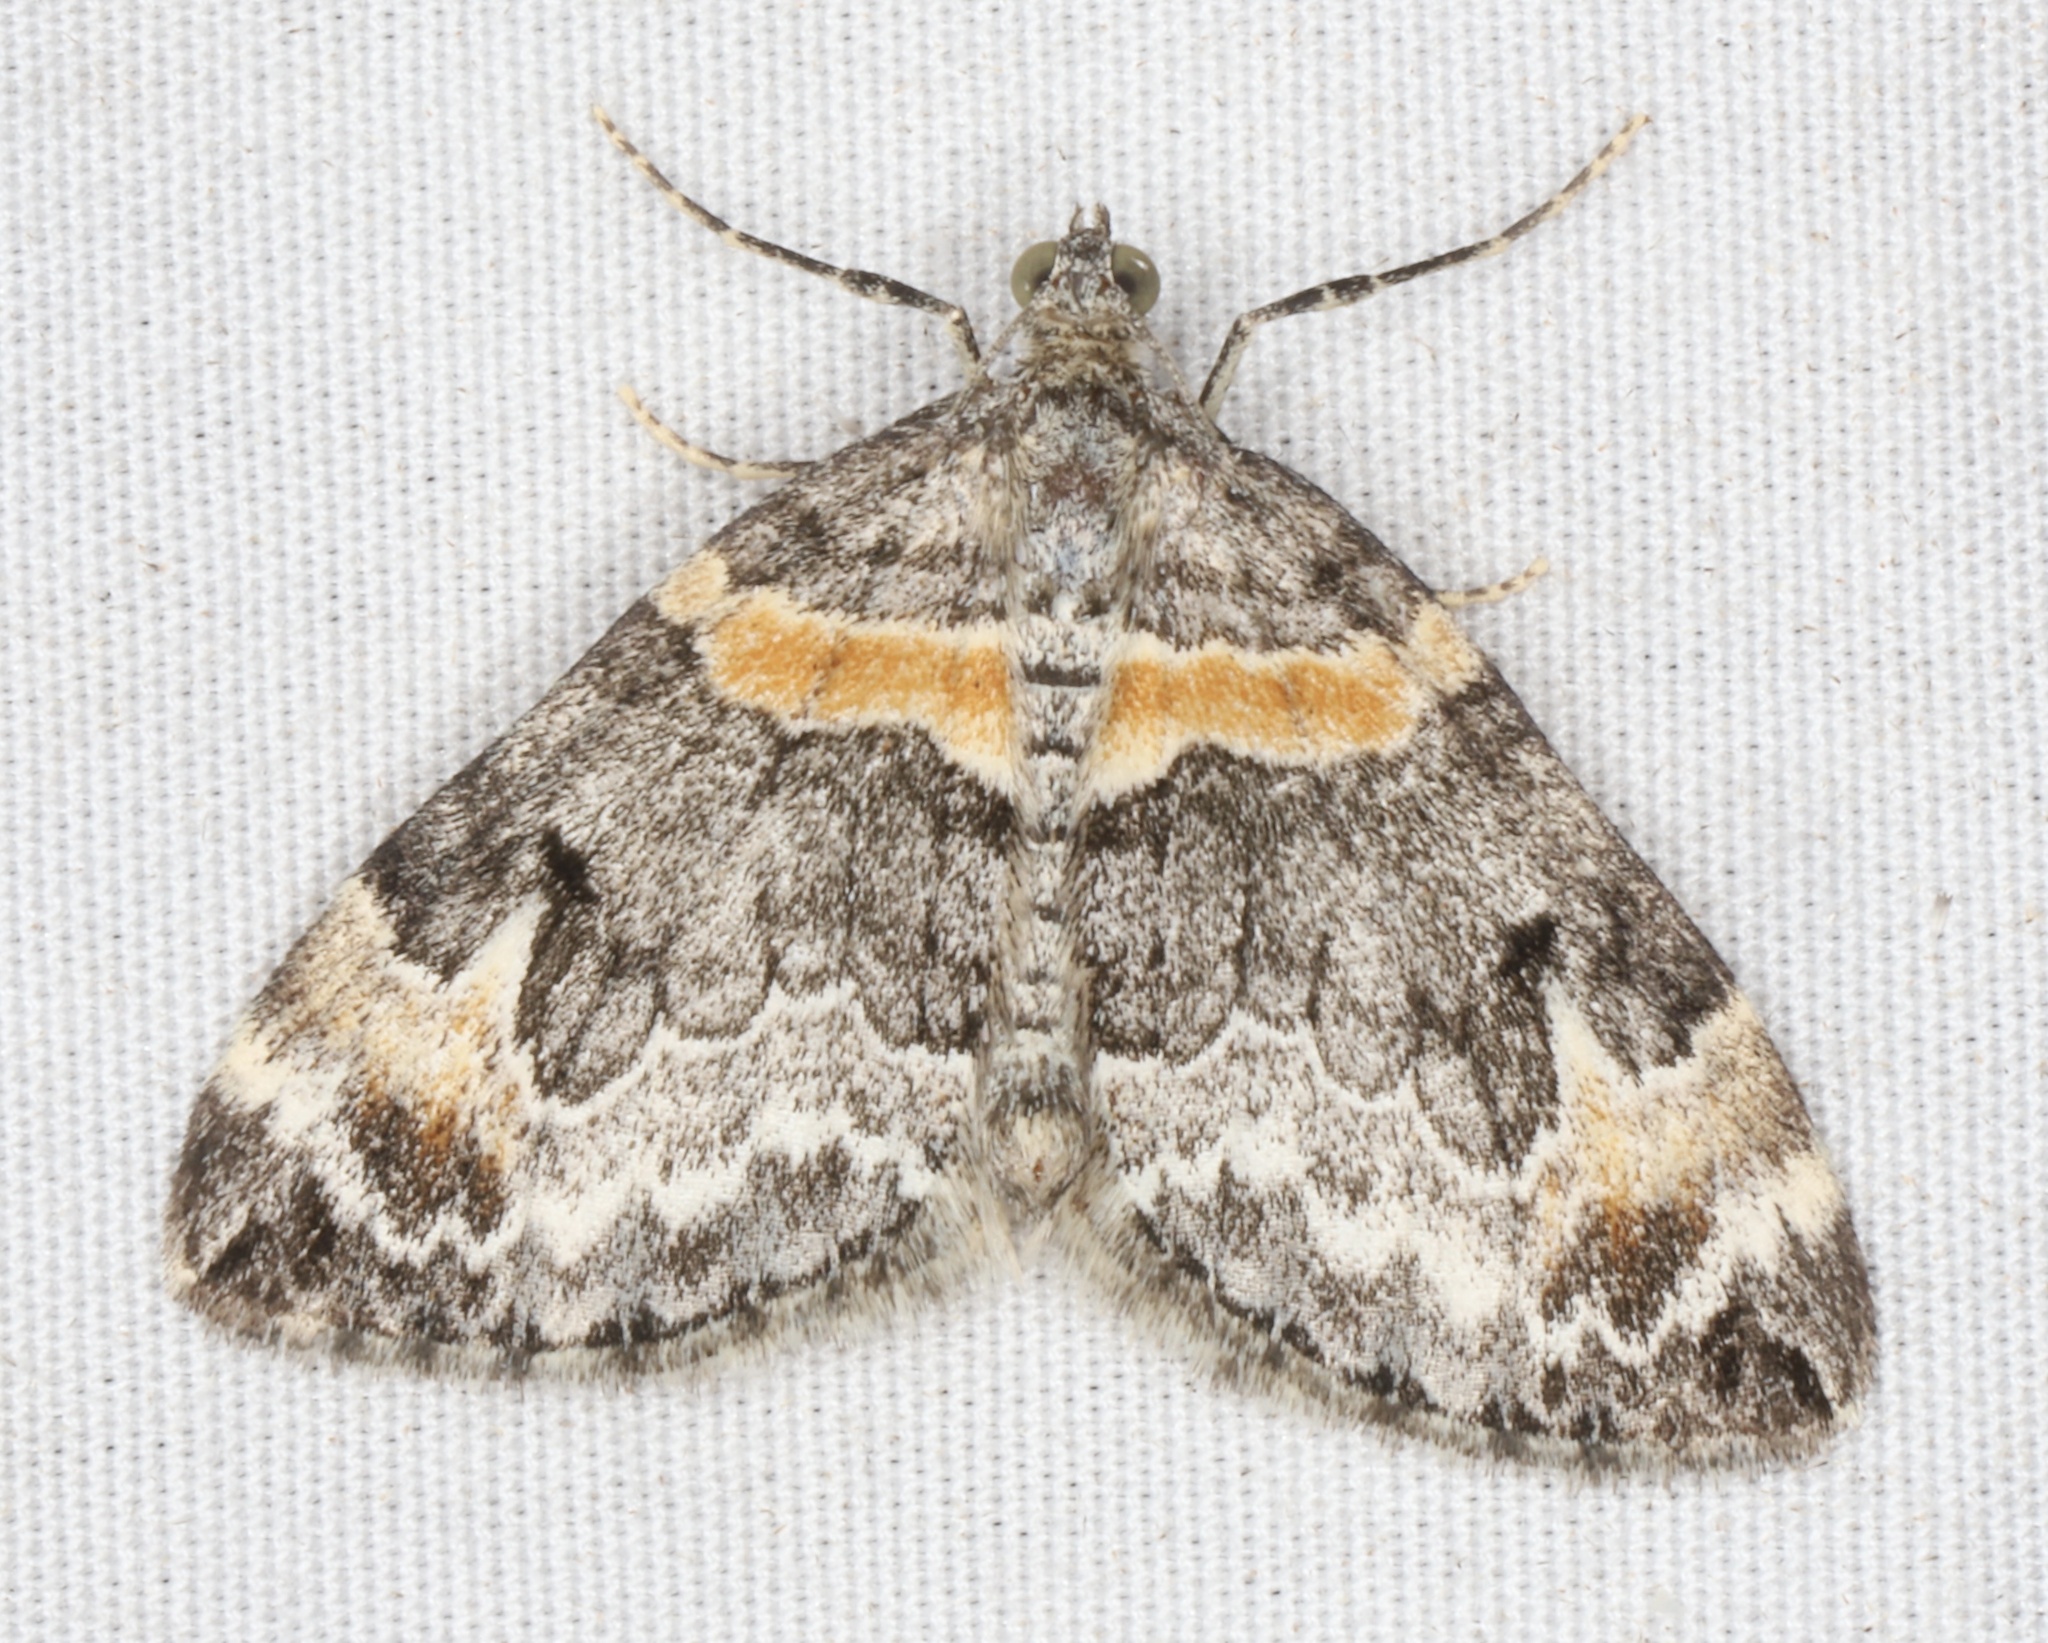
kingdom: Animalia
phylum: Arthropoda
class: Insecta
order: Lepidoptera
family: Geometridae
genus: Dysstroma
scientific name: Dysstroma hersiliata
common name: Orange-barred carpet
